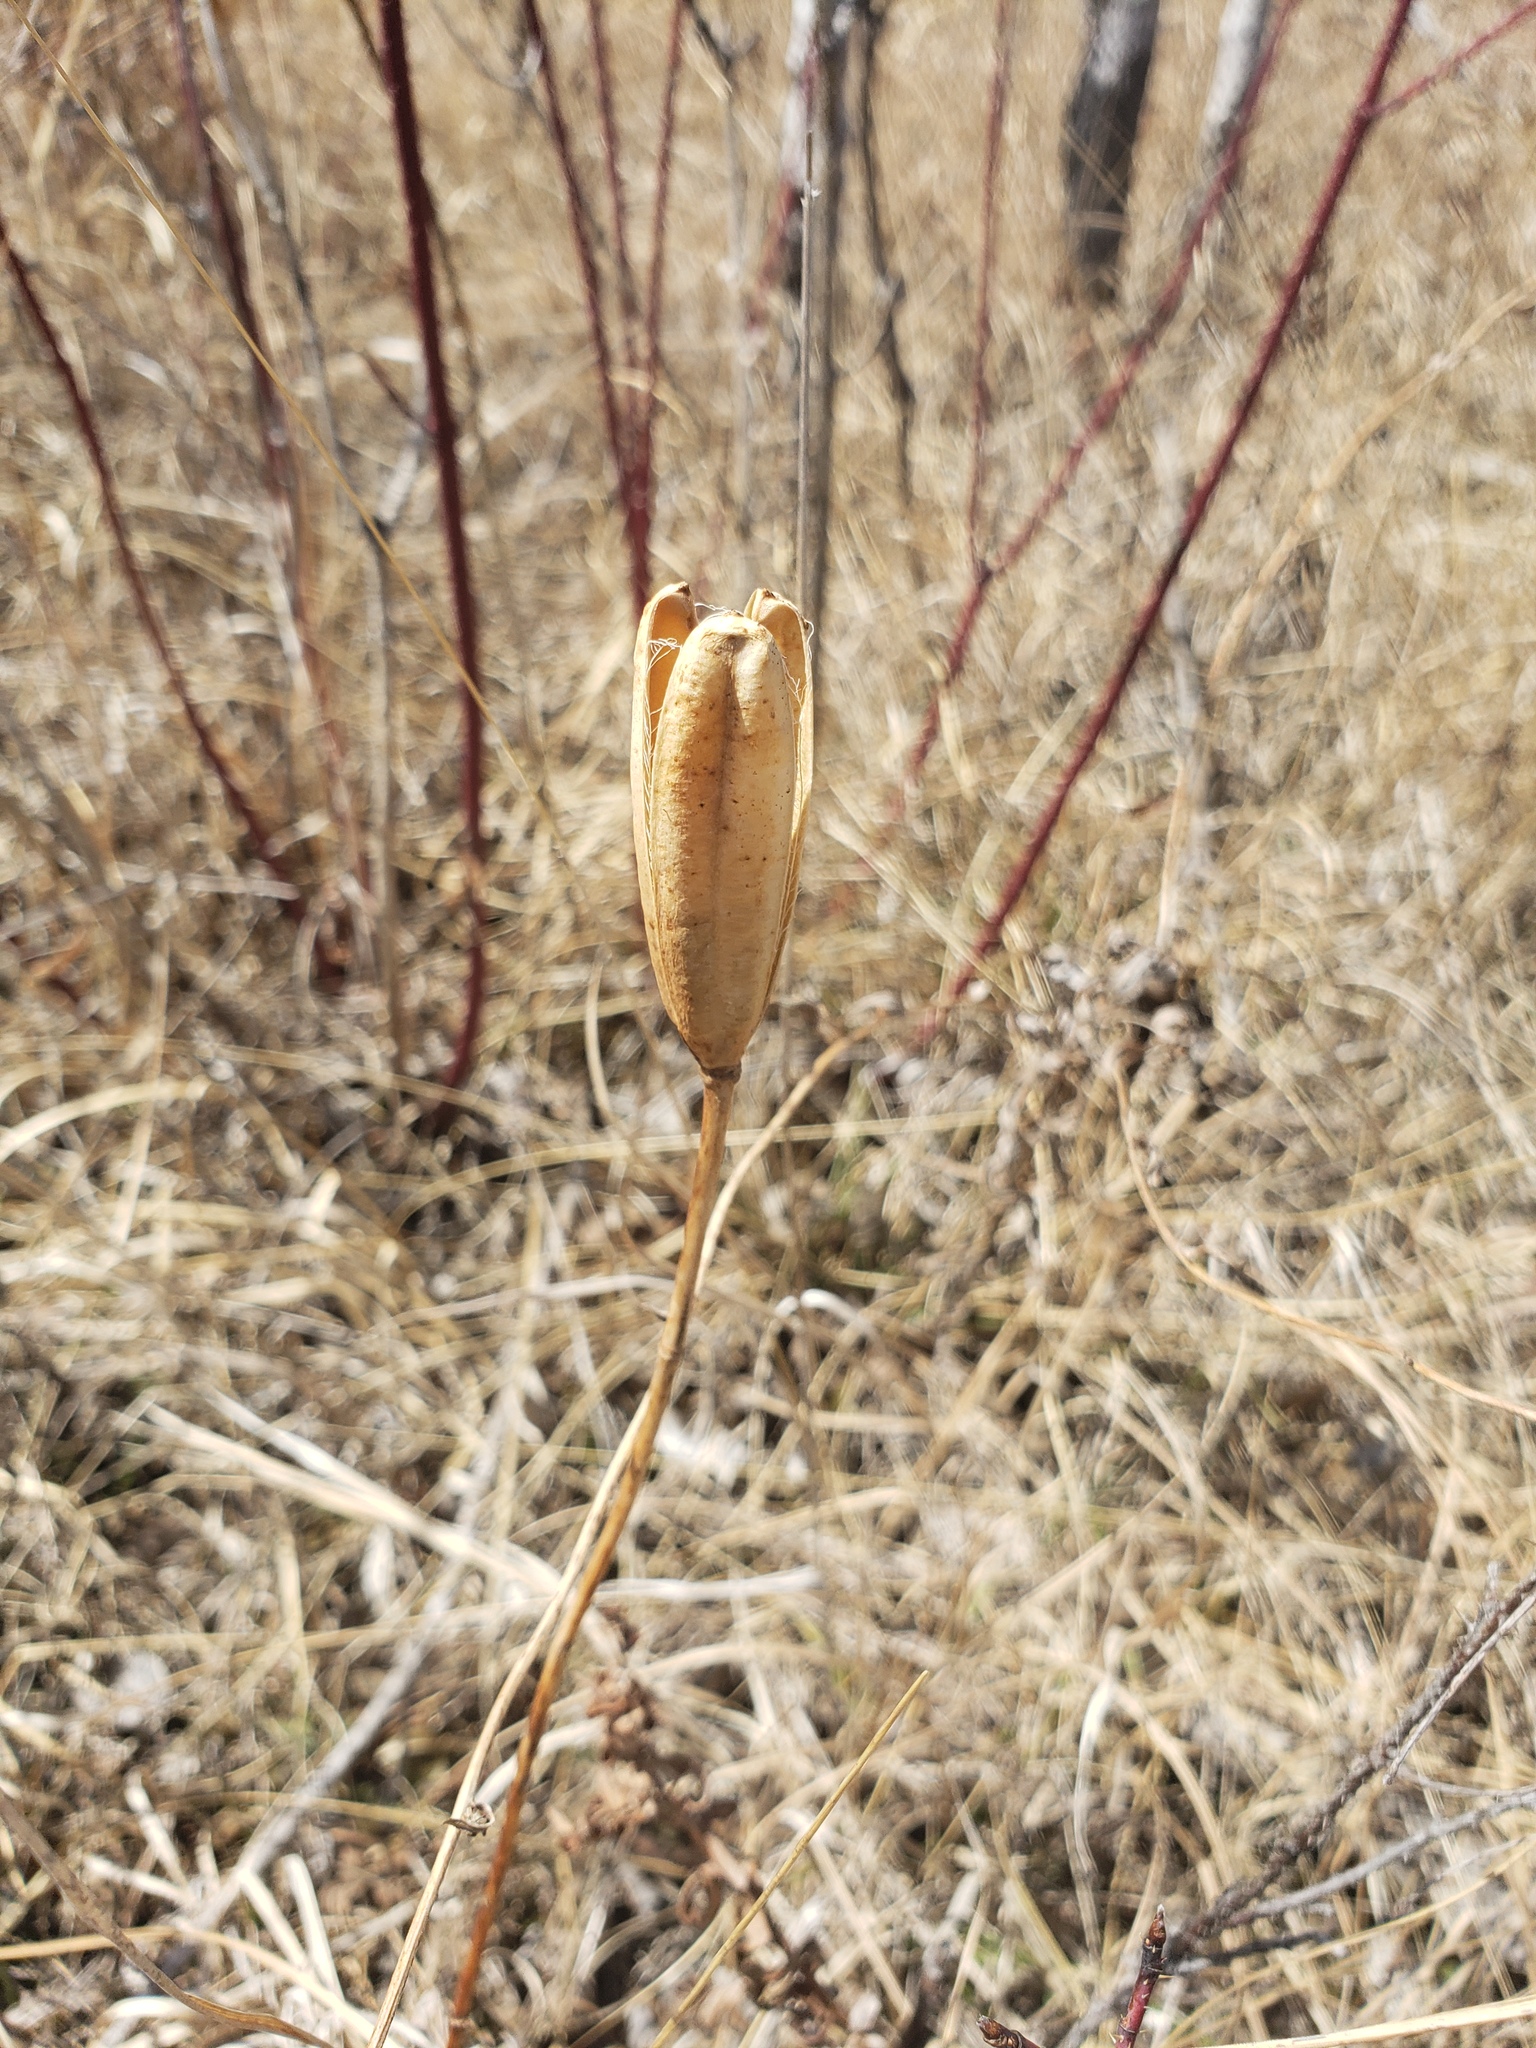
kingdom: Plantae
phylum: Tracheophyta
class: Liliopsida
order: Liliales
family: Liliaceae
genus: Lilium
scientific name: Lilium philadelphicum
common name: Red lily
